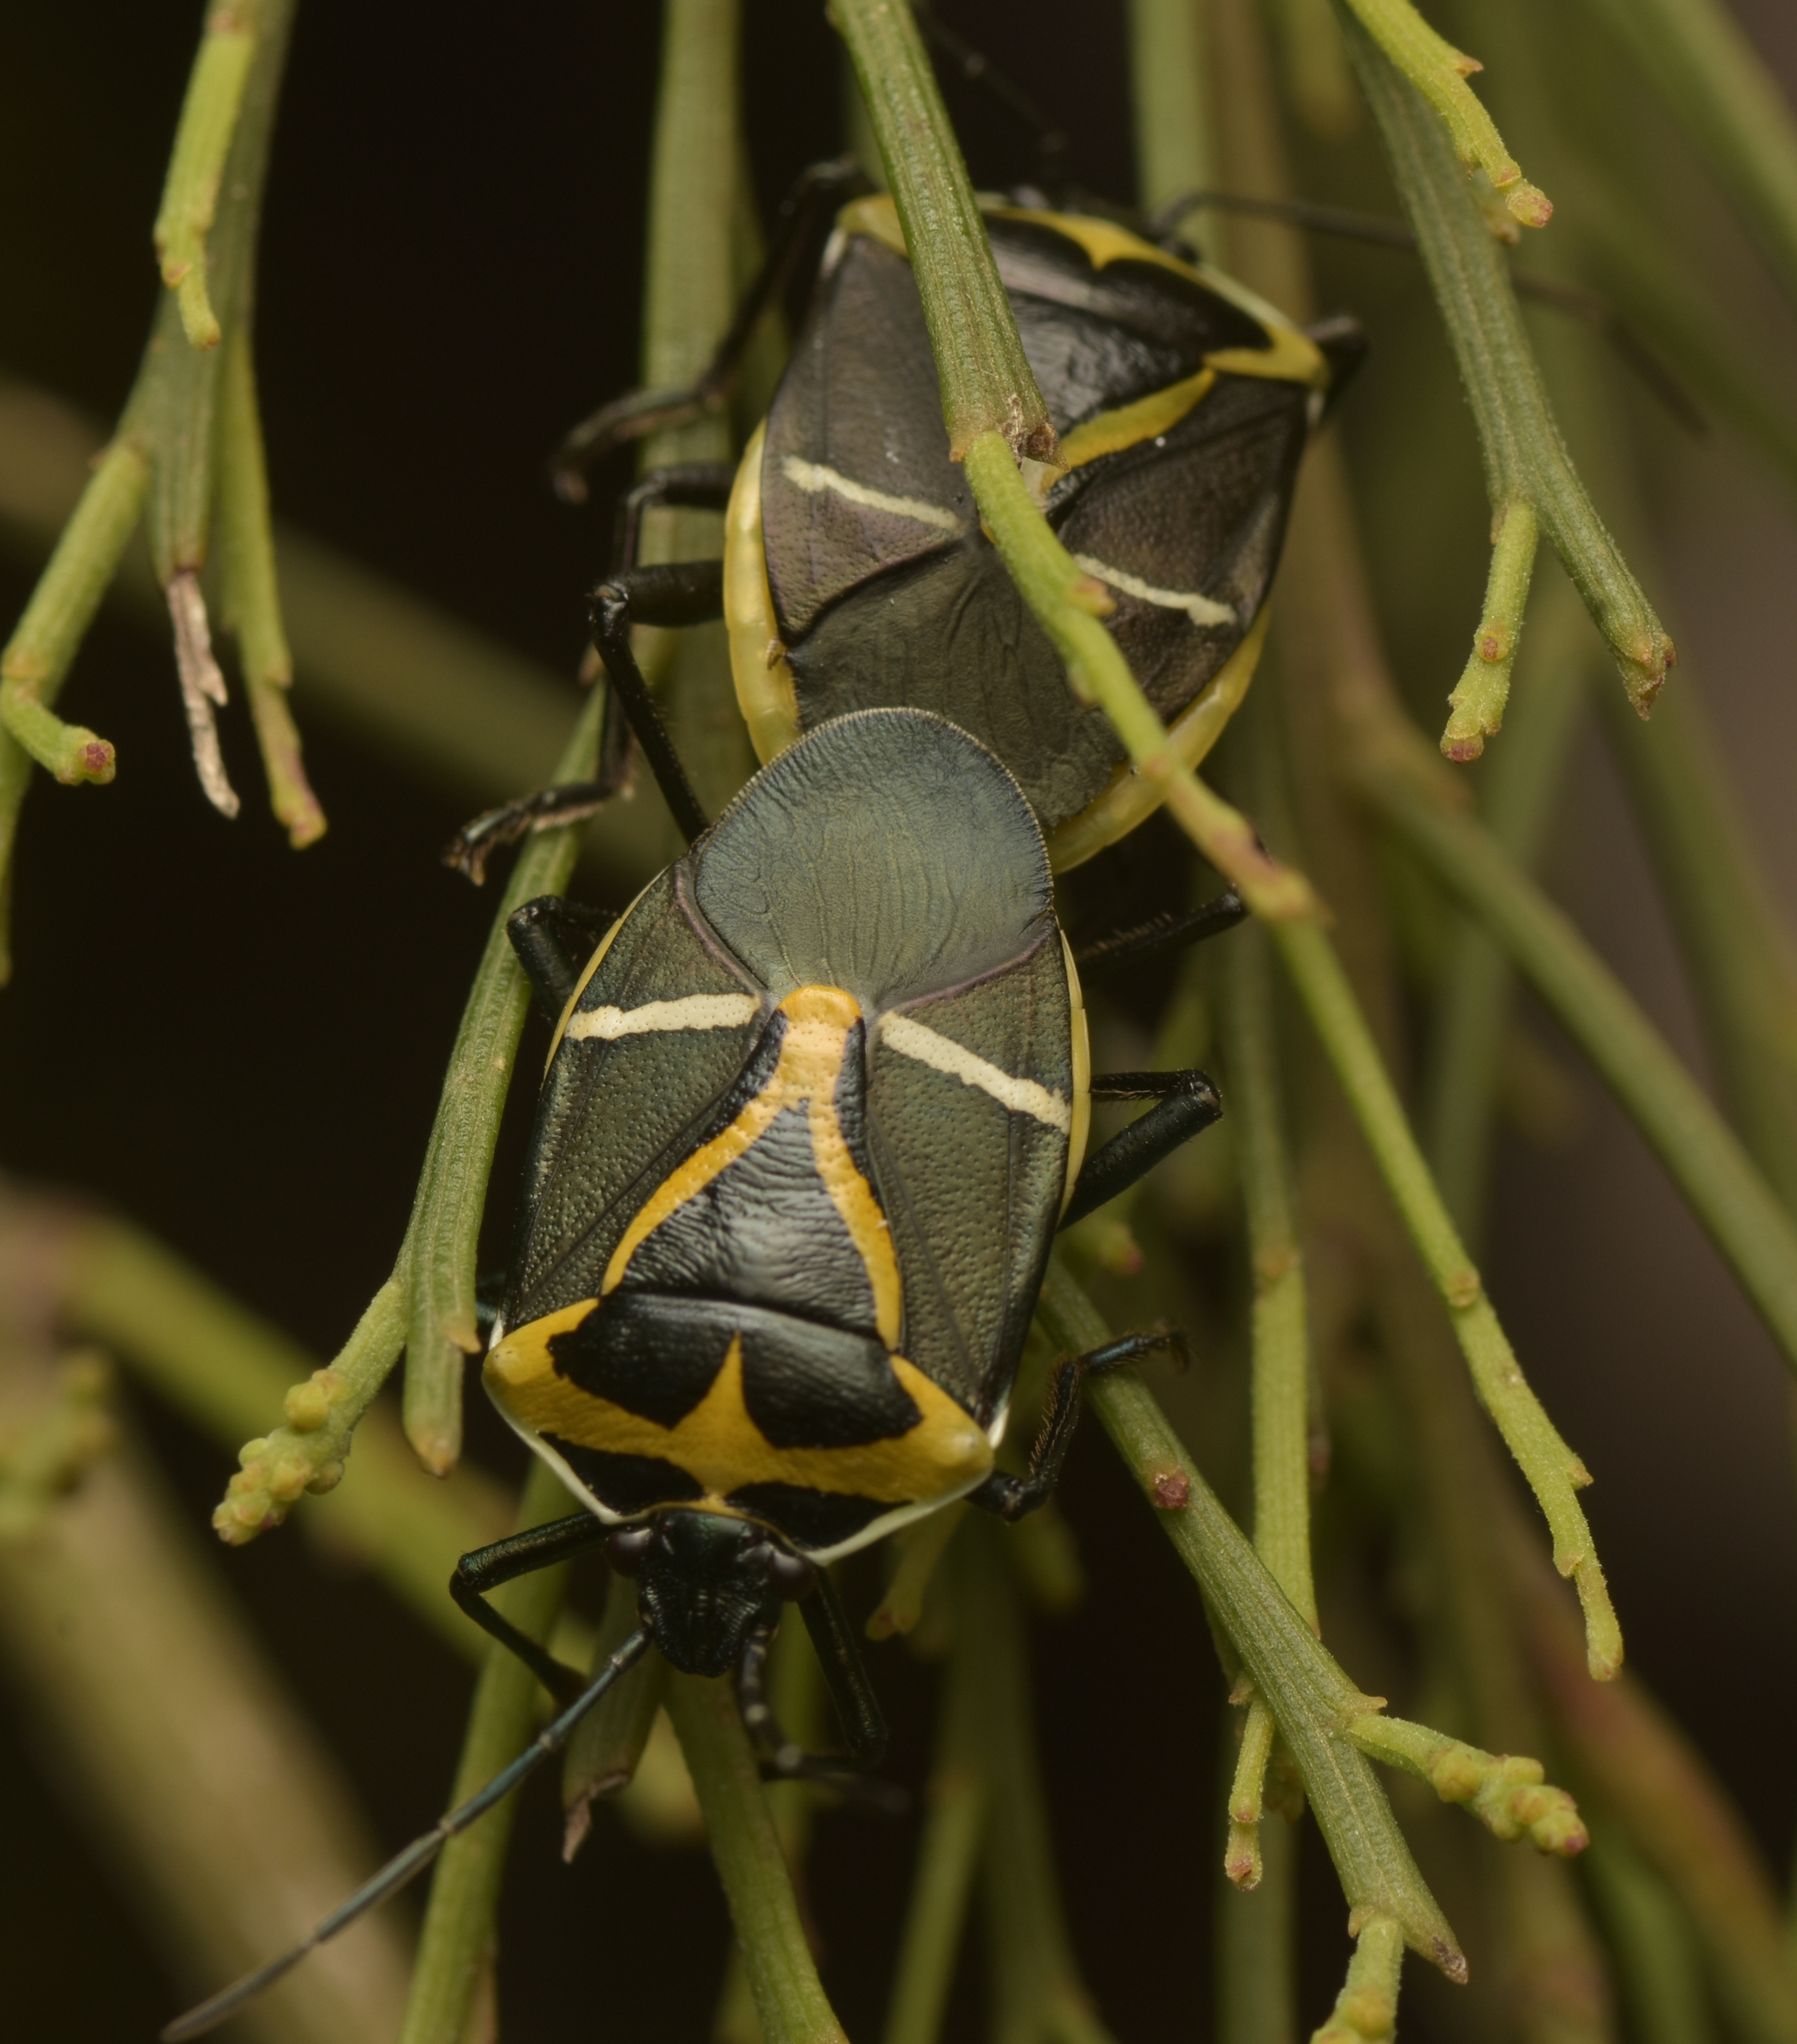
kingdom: Animalia
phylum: Arthropoda
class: Insecta
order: Hemiptera
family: Pentatomidae
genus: Commius
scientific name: Commius
